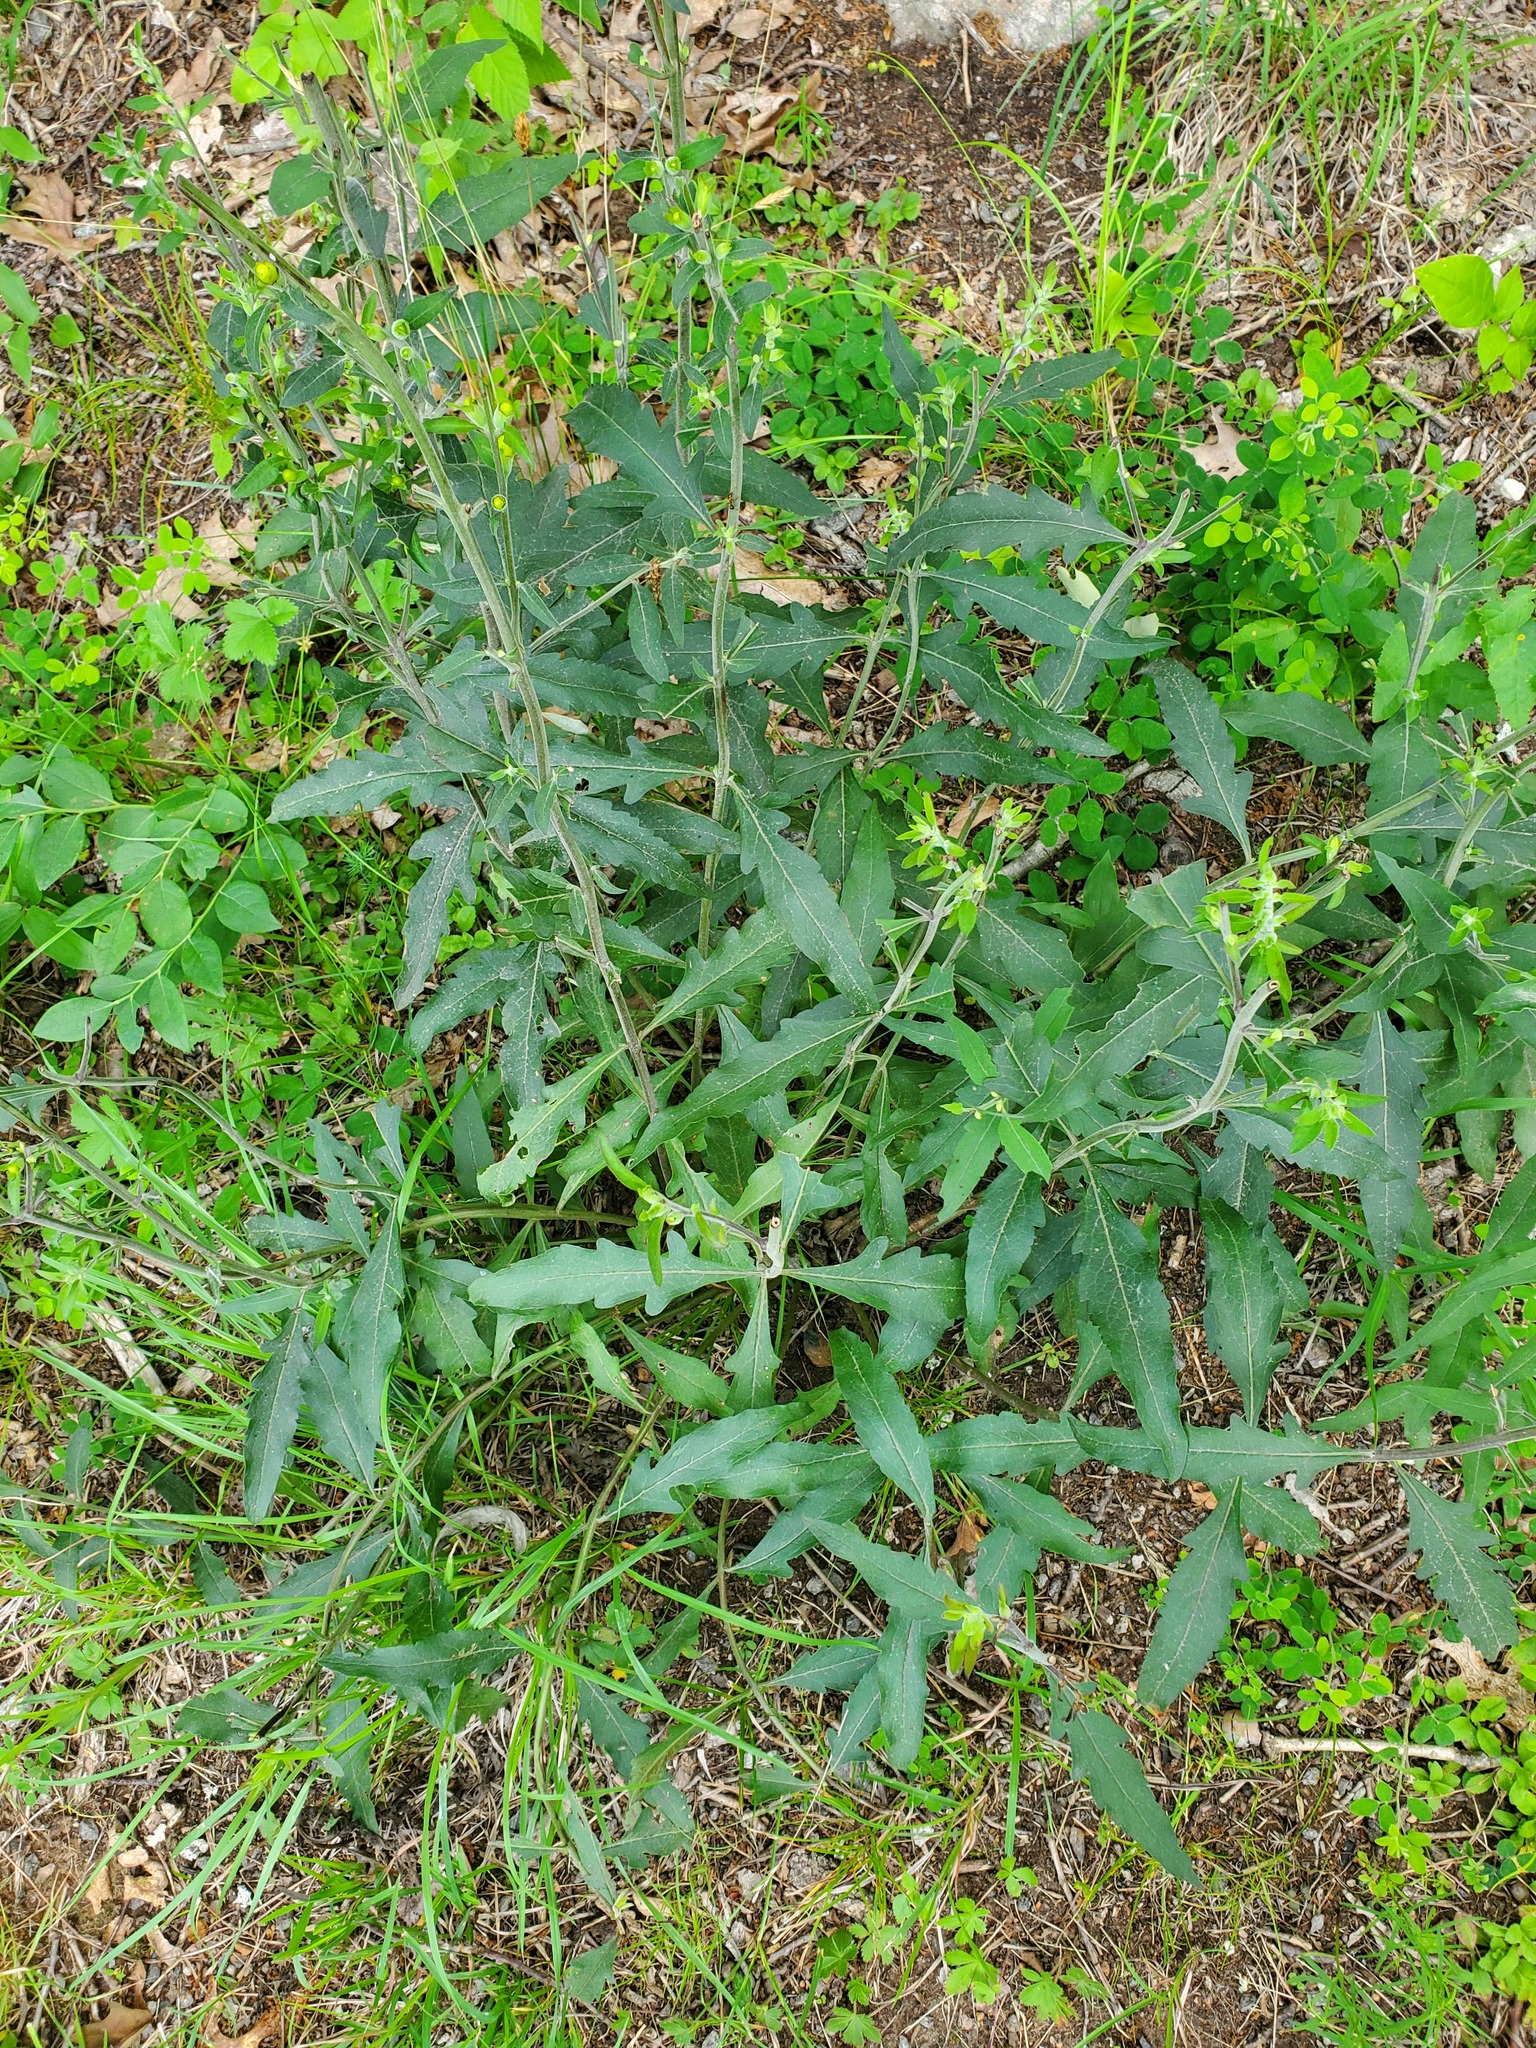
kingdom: Plantae
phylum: Tracheophyta
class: Magnoliopsida
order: Lamiales
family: Orobanchaceae
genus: Aureolaria
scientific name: Aureolaria virginica
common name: Downy false foxglove
